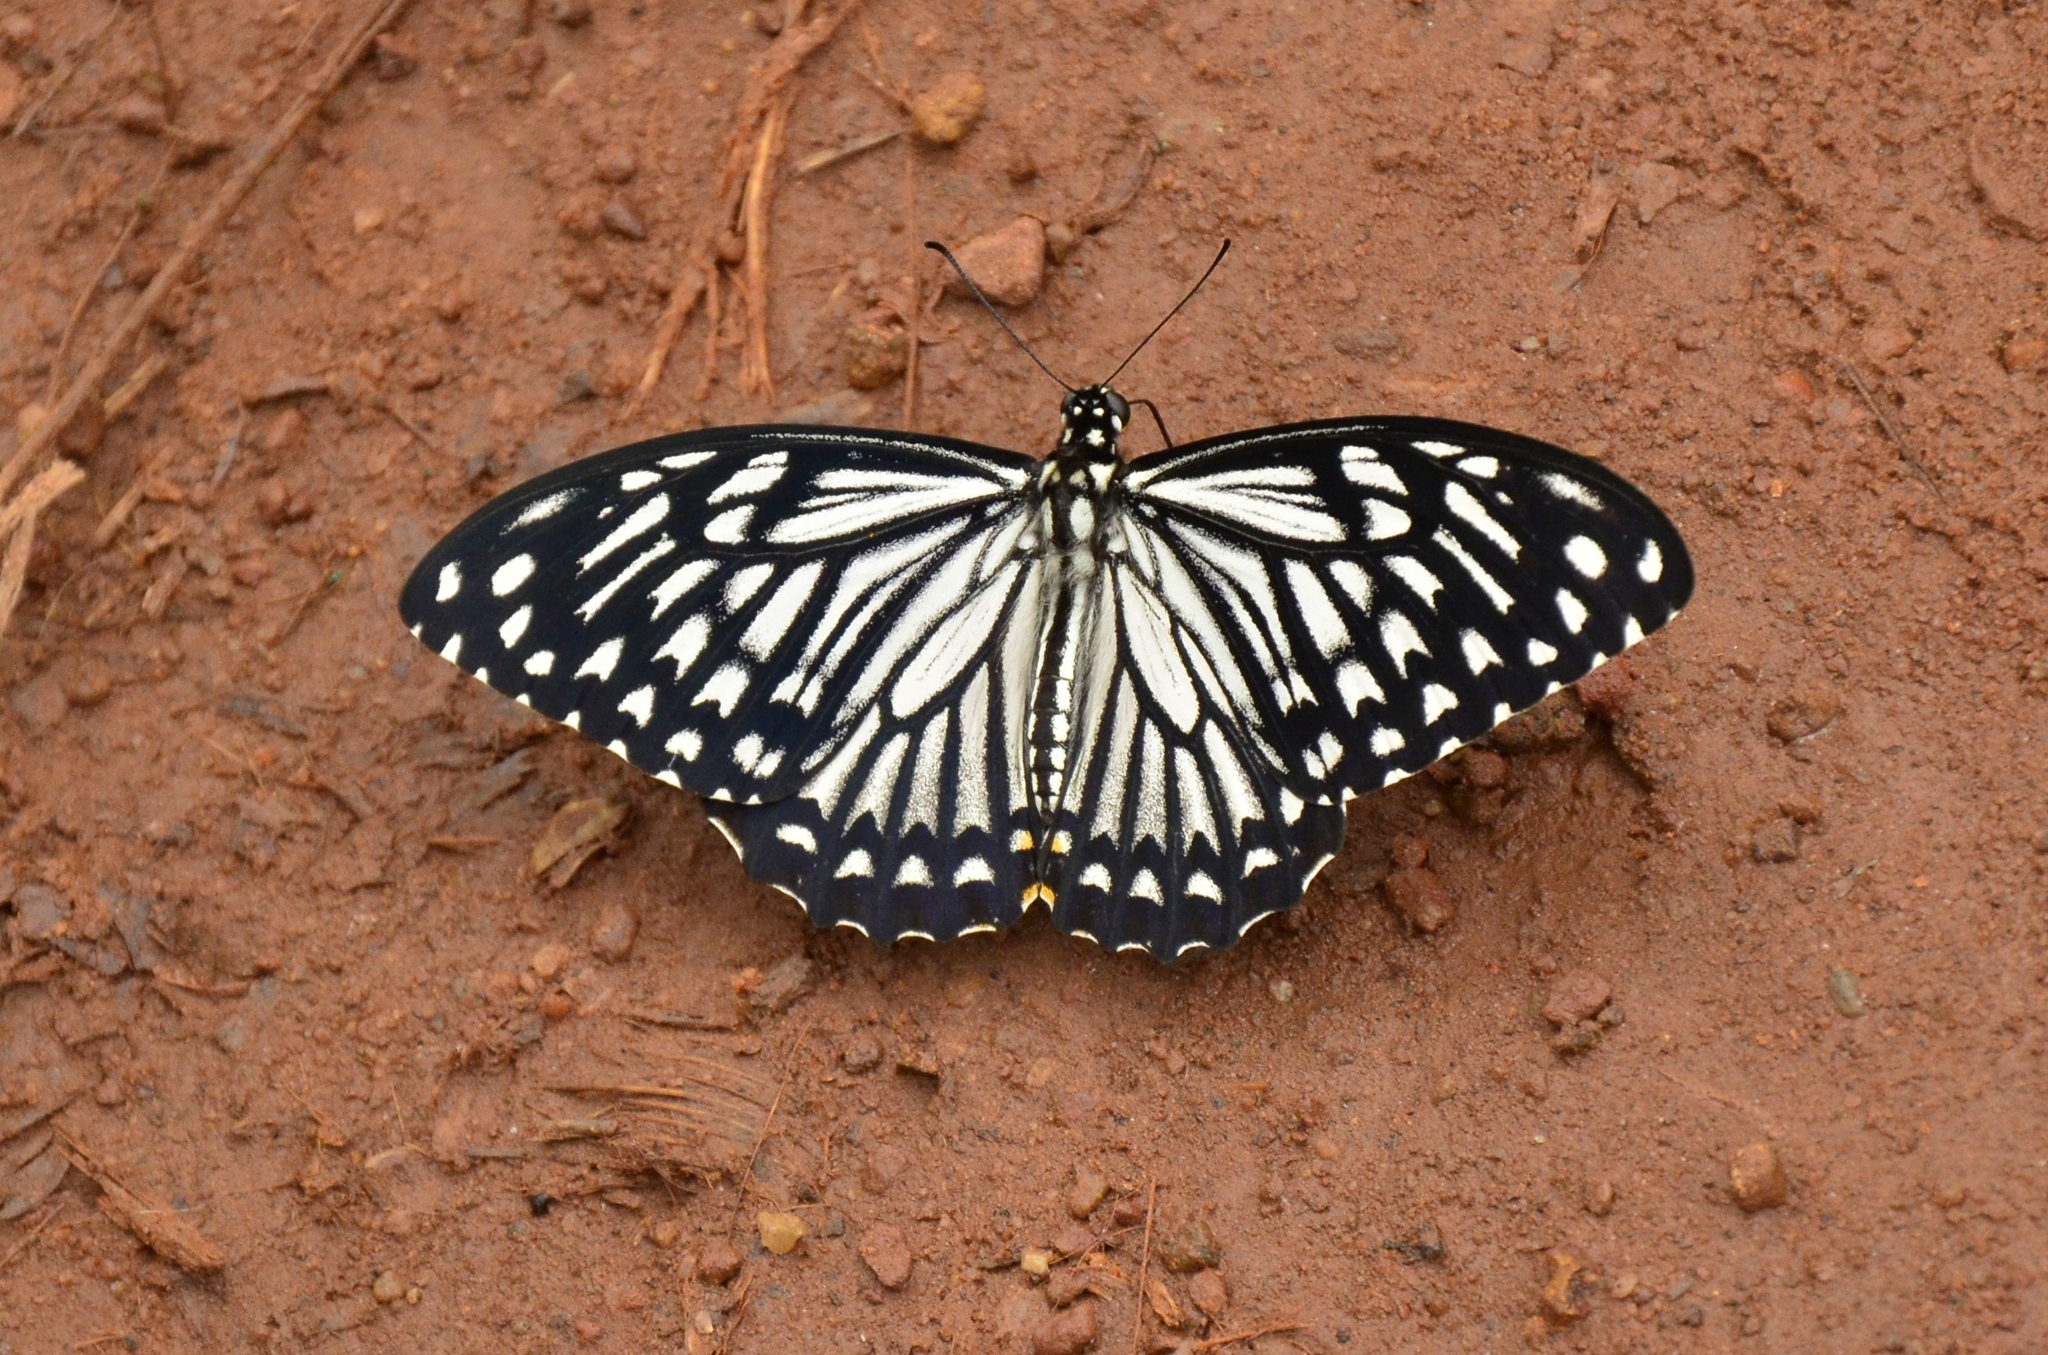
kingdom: Animalia
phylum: Arthropoda
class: Insecta
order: Lepidoptera
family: Papilionidae
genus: Chilasa
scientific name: Chilasa clytia
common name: Common mime
